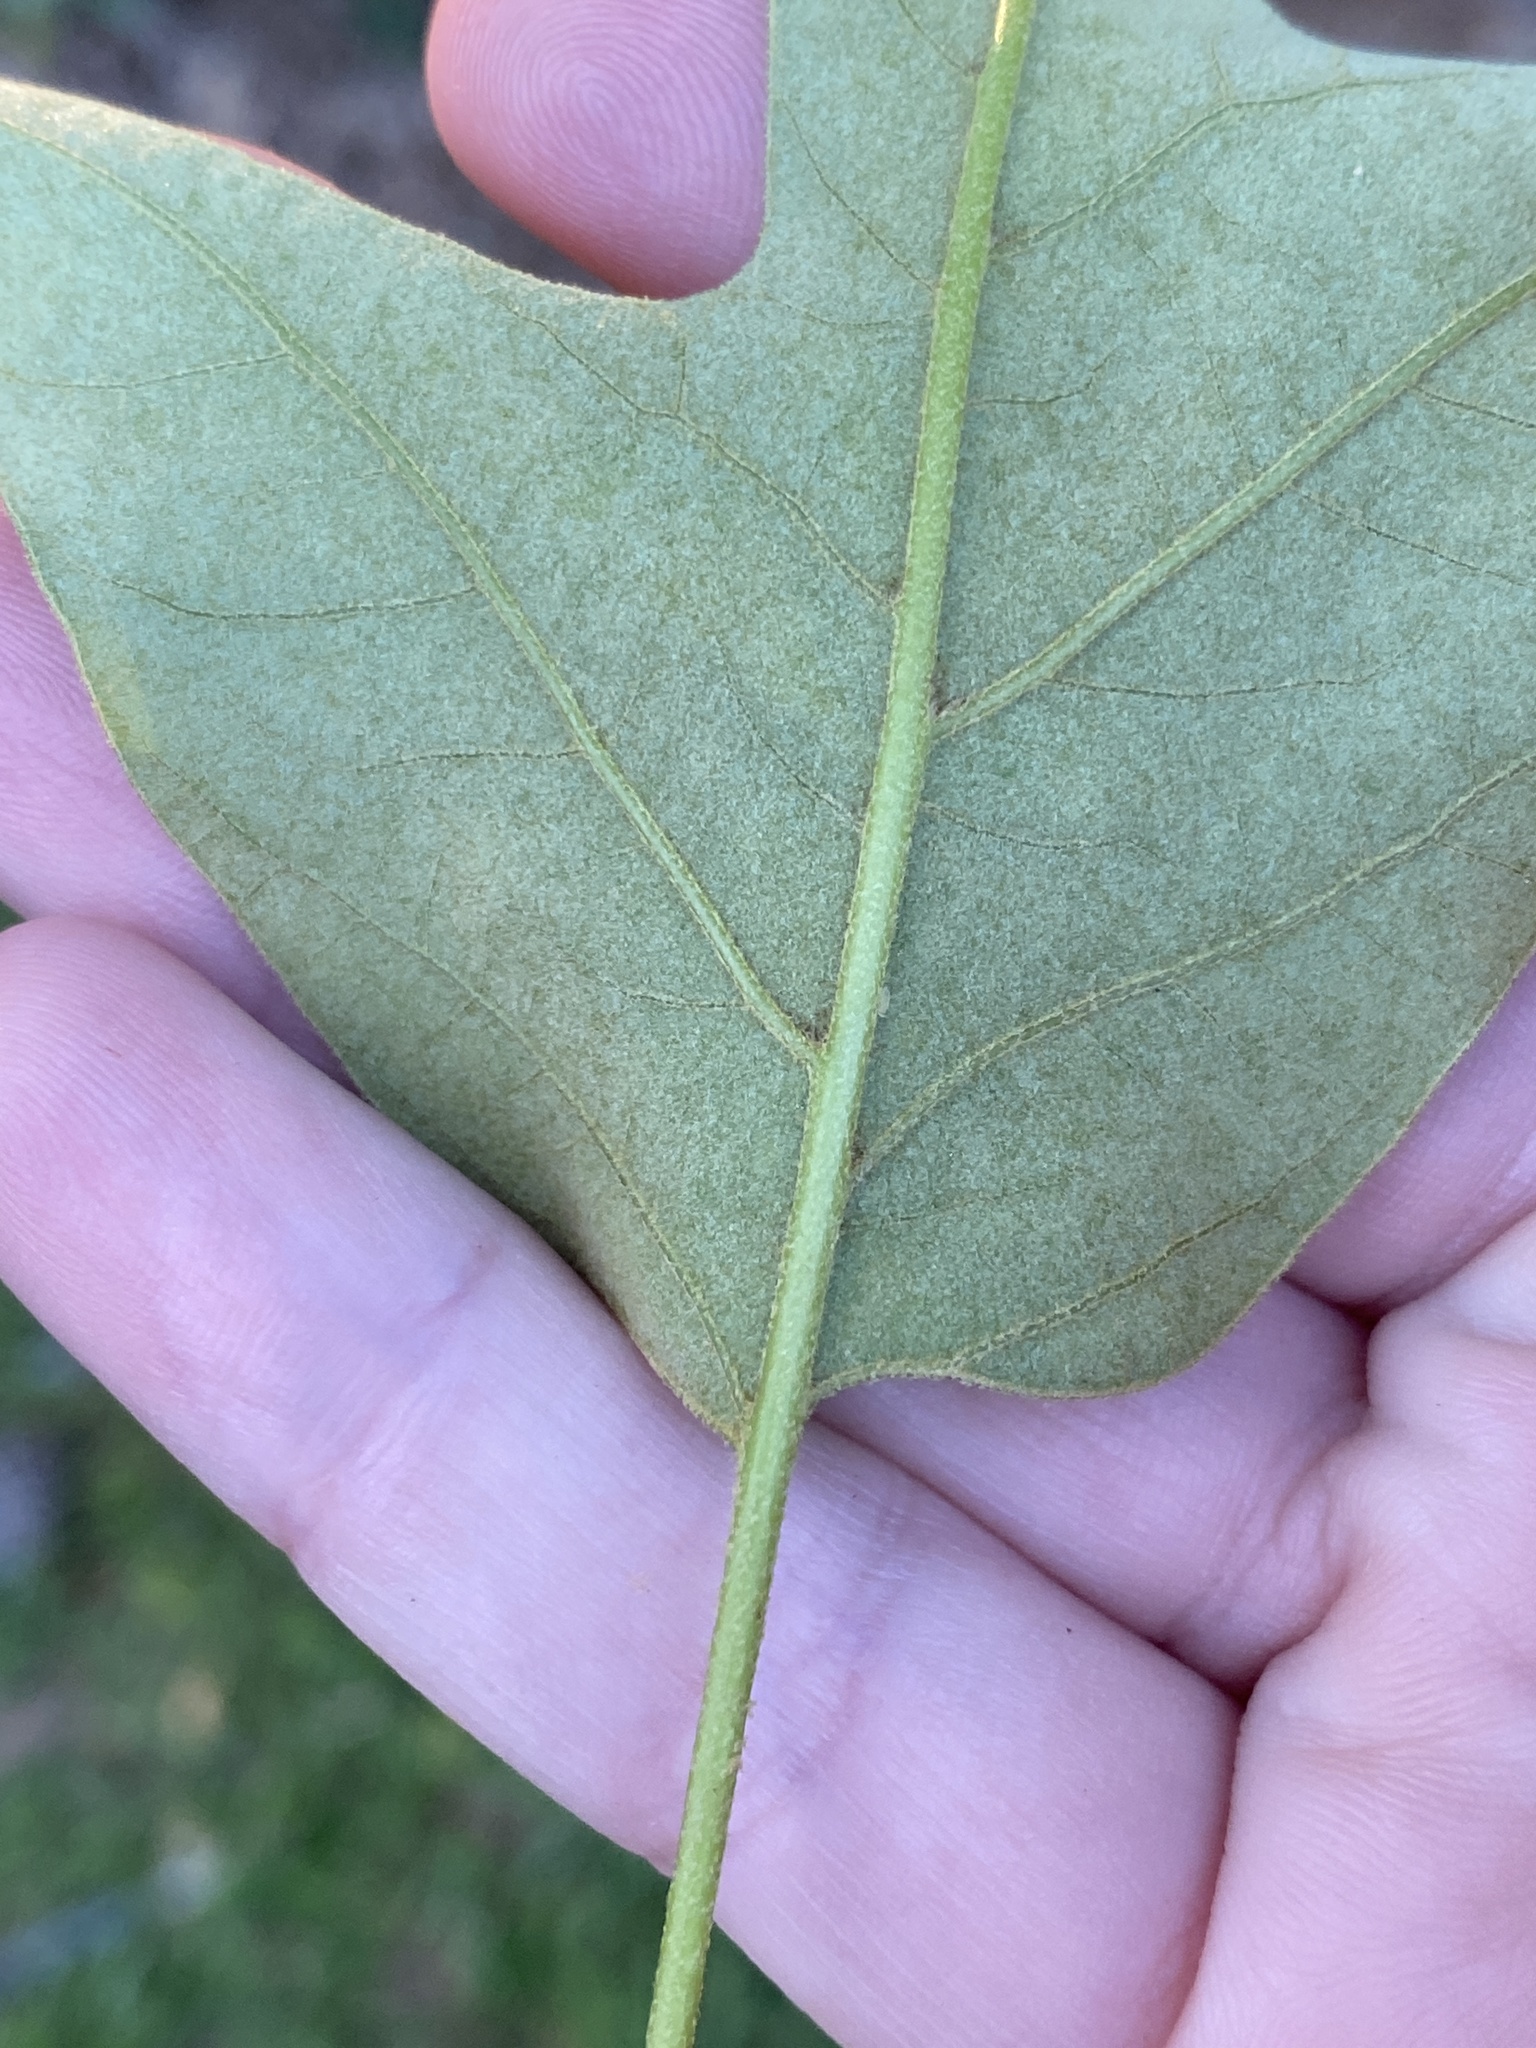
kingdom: Plantae
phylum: Tracheophyta
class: Magnoliopsida
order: Fagales
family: Fagaceae
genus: Quercus
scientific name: Quercus falcata
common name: Southern red oak
